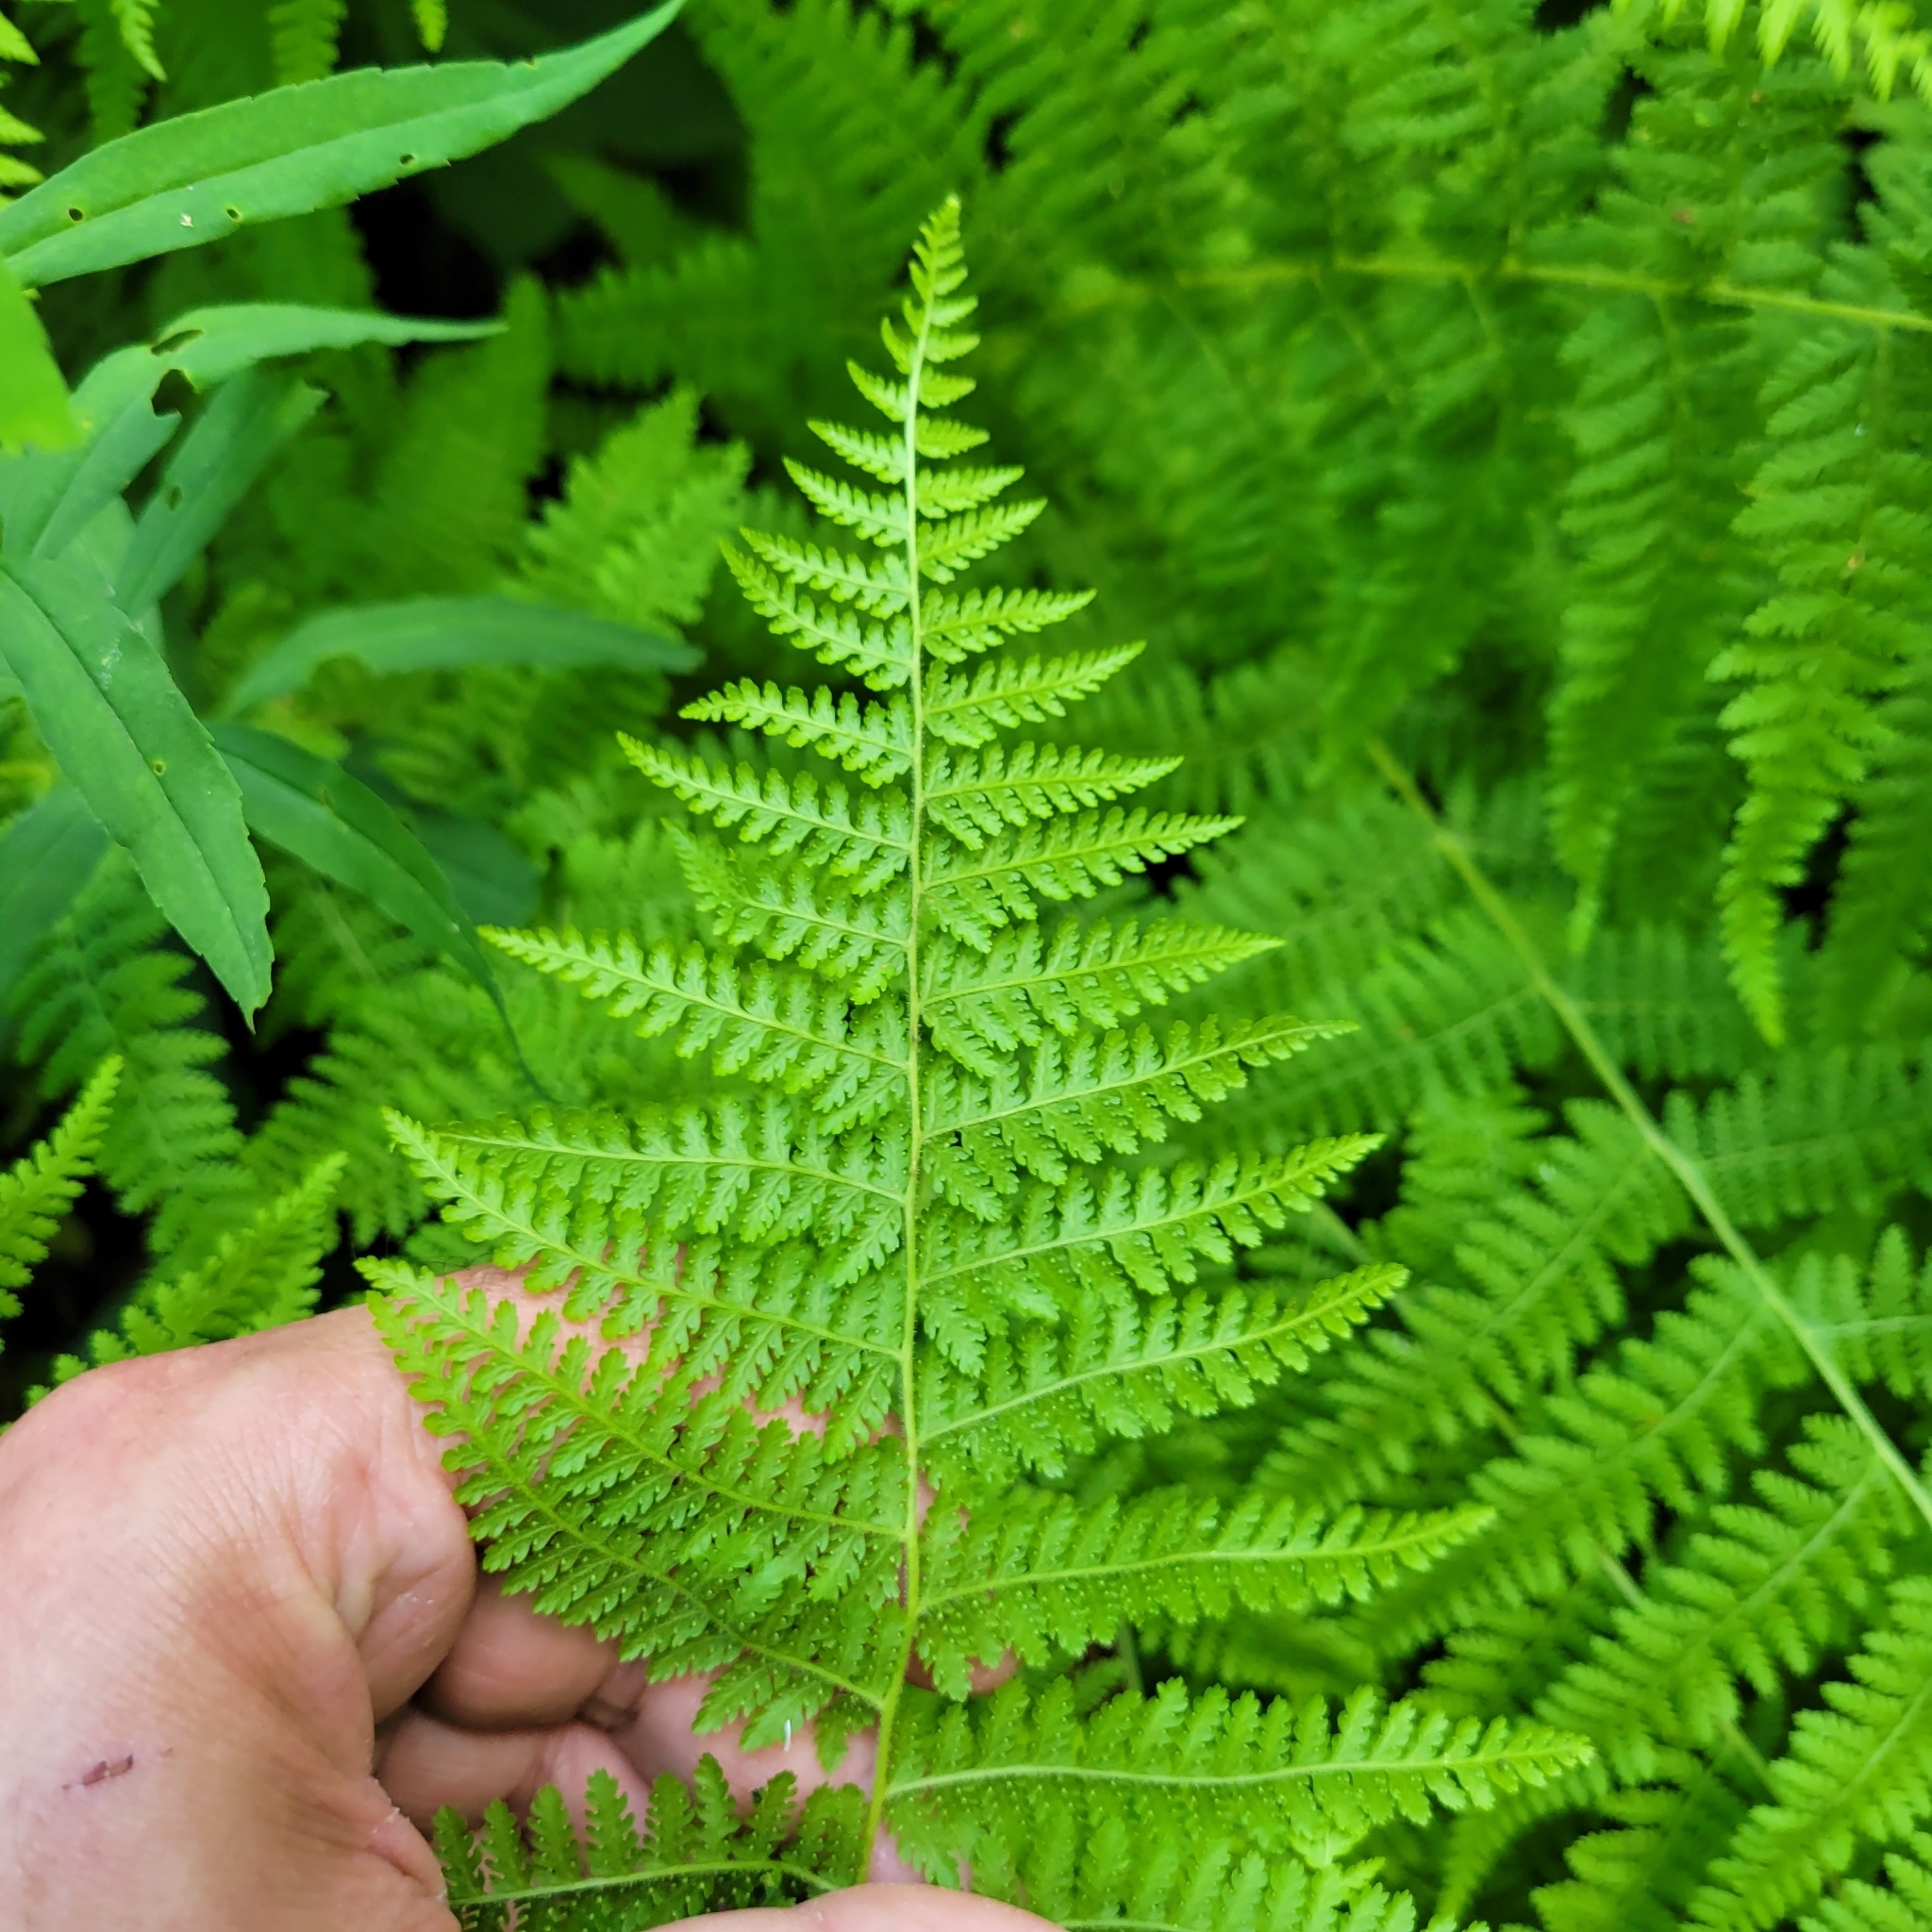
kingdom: Plantae
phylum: Tracheophyta
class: Polypodiopsida
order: Polypodiales
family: Dennstaedtiaceae
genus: Sitobolium
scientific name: Sitobolium punctilobum
